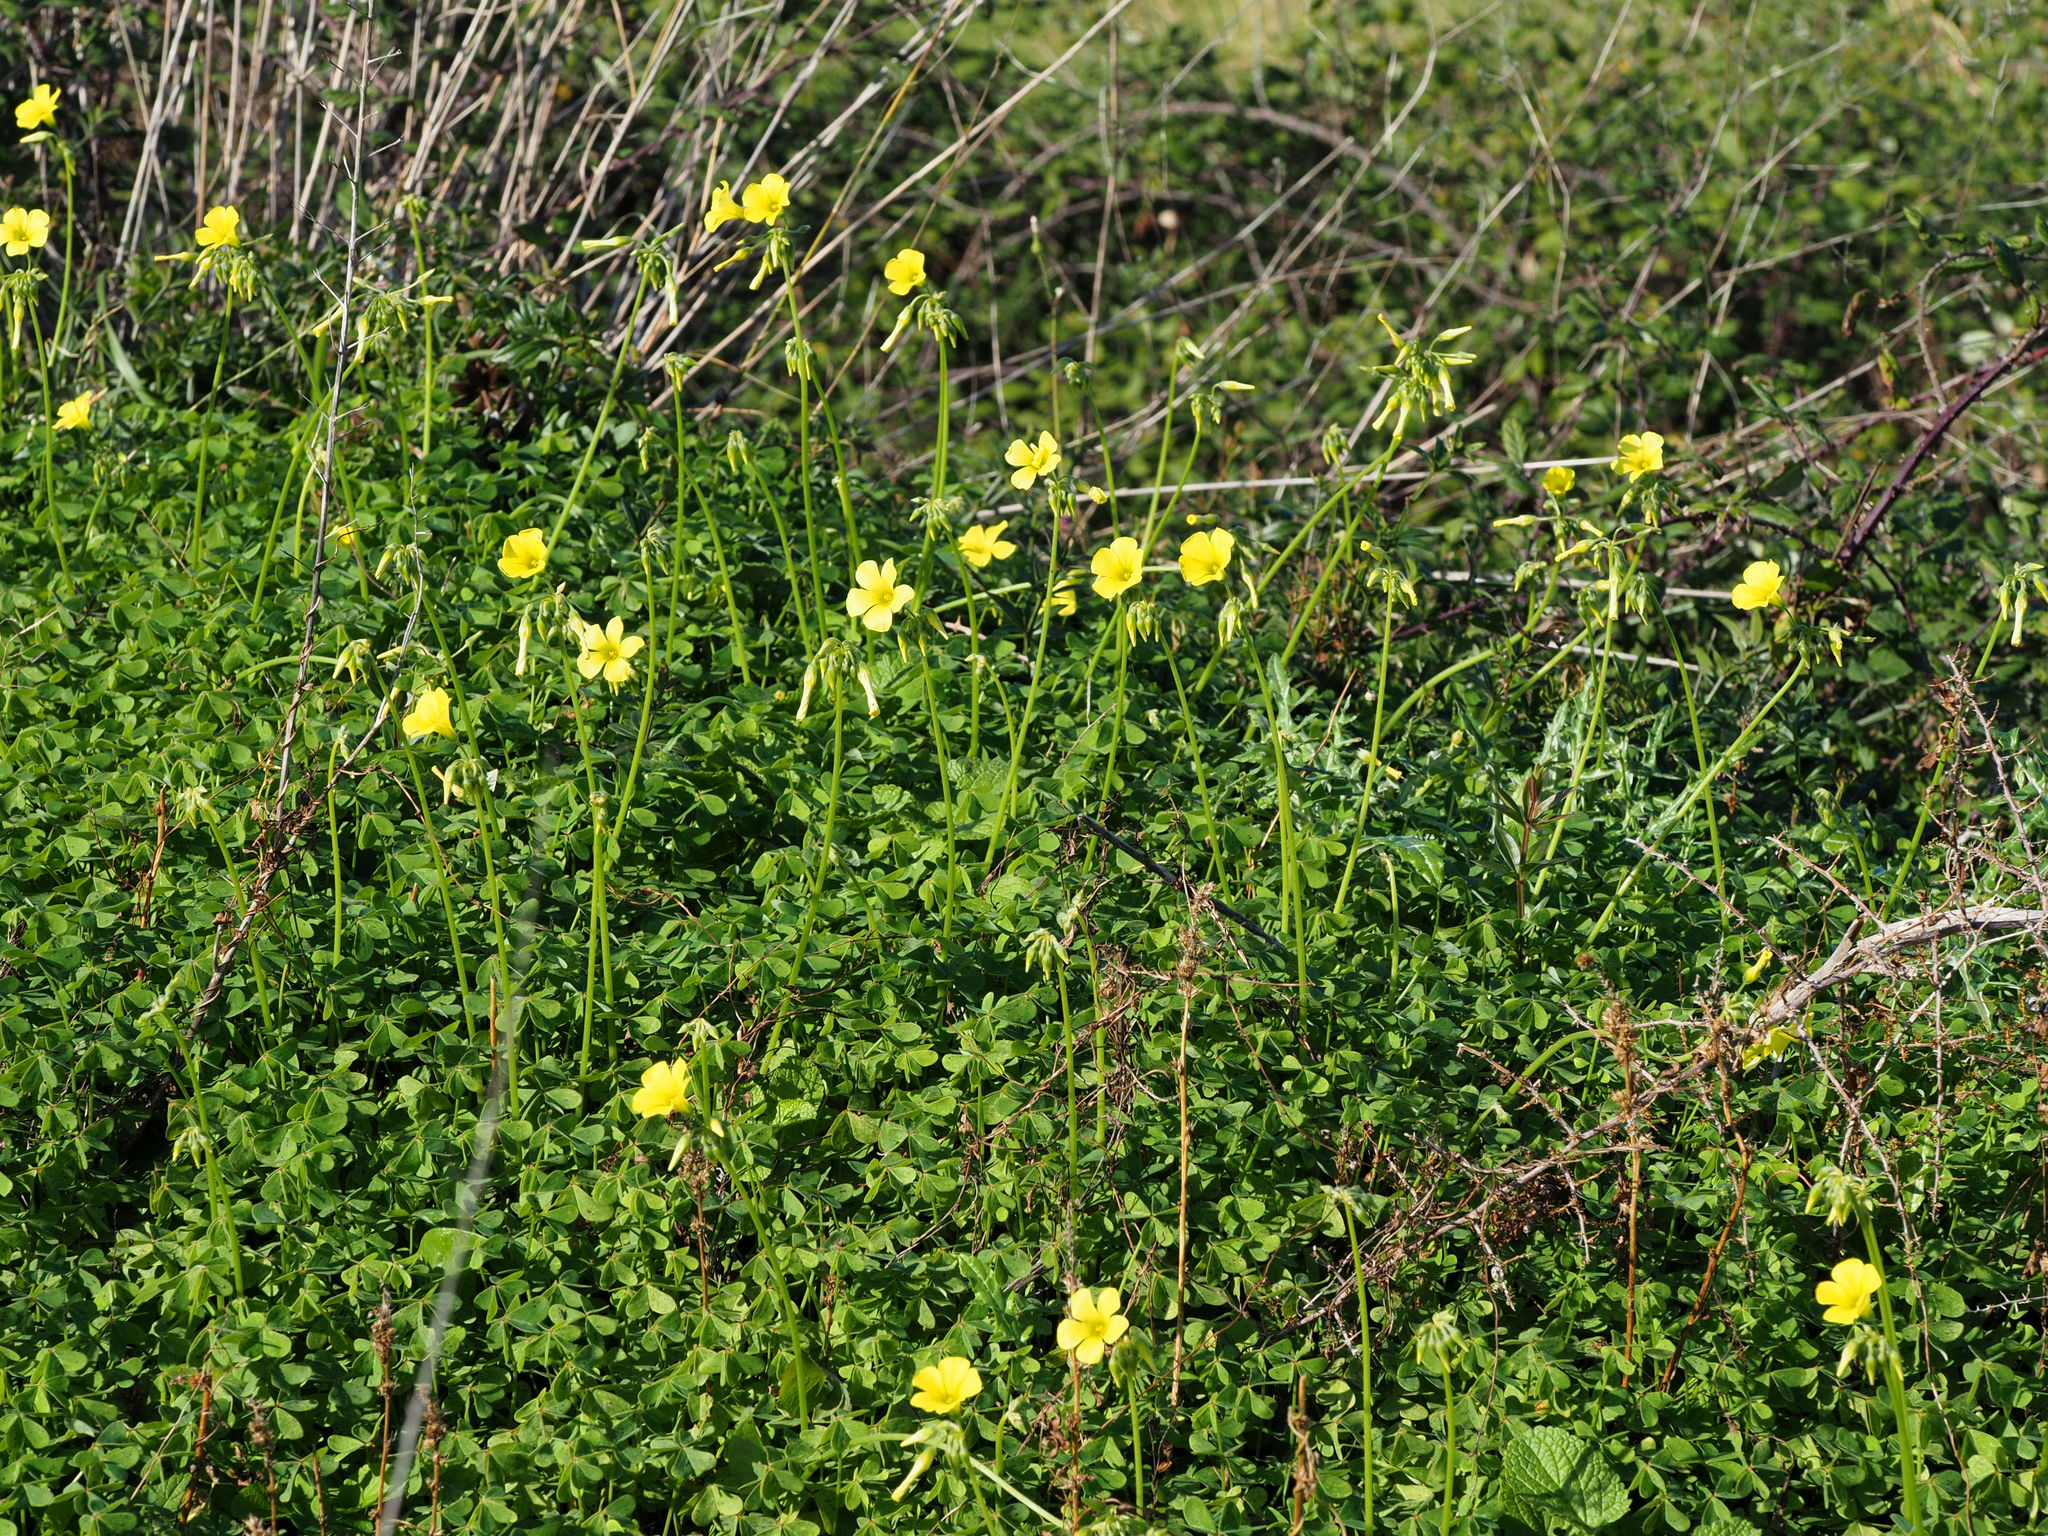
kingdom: Plantae
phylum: Tracheophyta
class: Magnoliopsida
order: Oxalidales
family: Oxalidaceae
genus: Oxalis
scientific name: Oxalis pes-caprae
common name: Bermuda-buttercup
